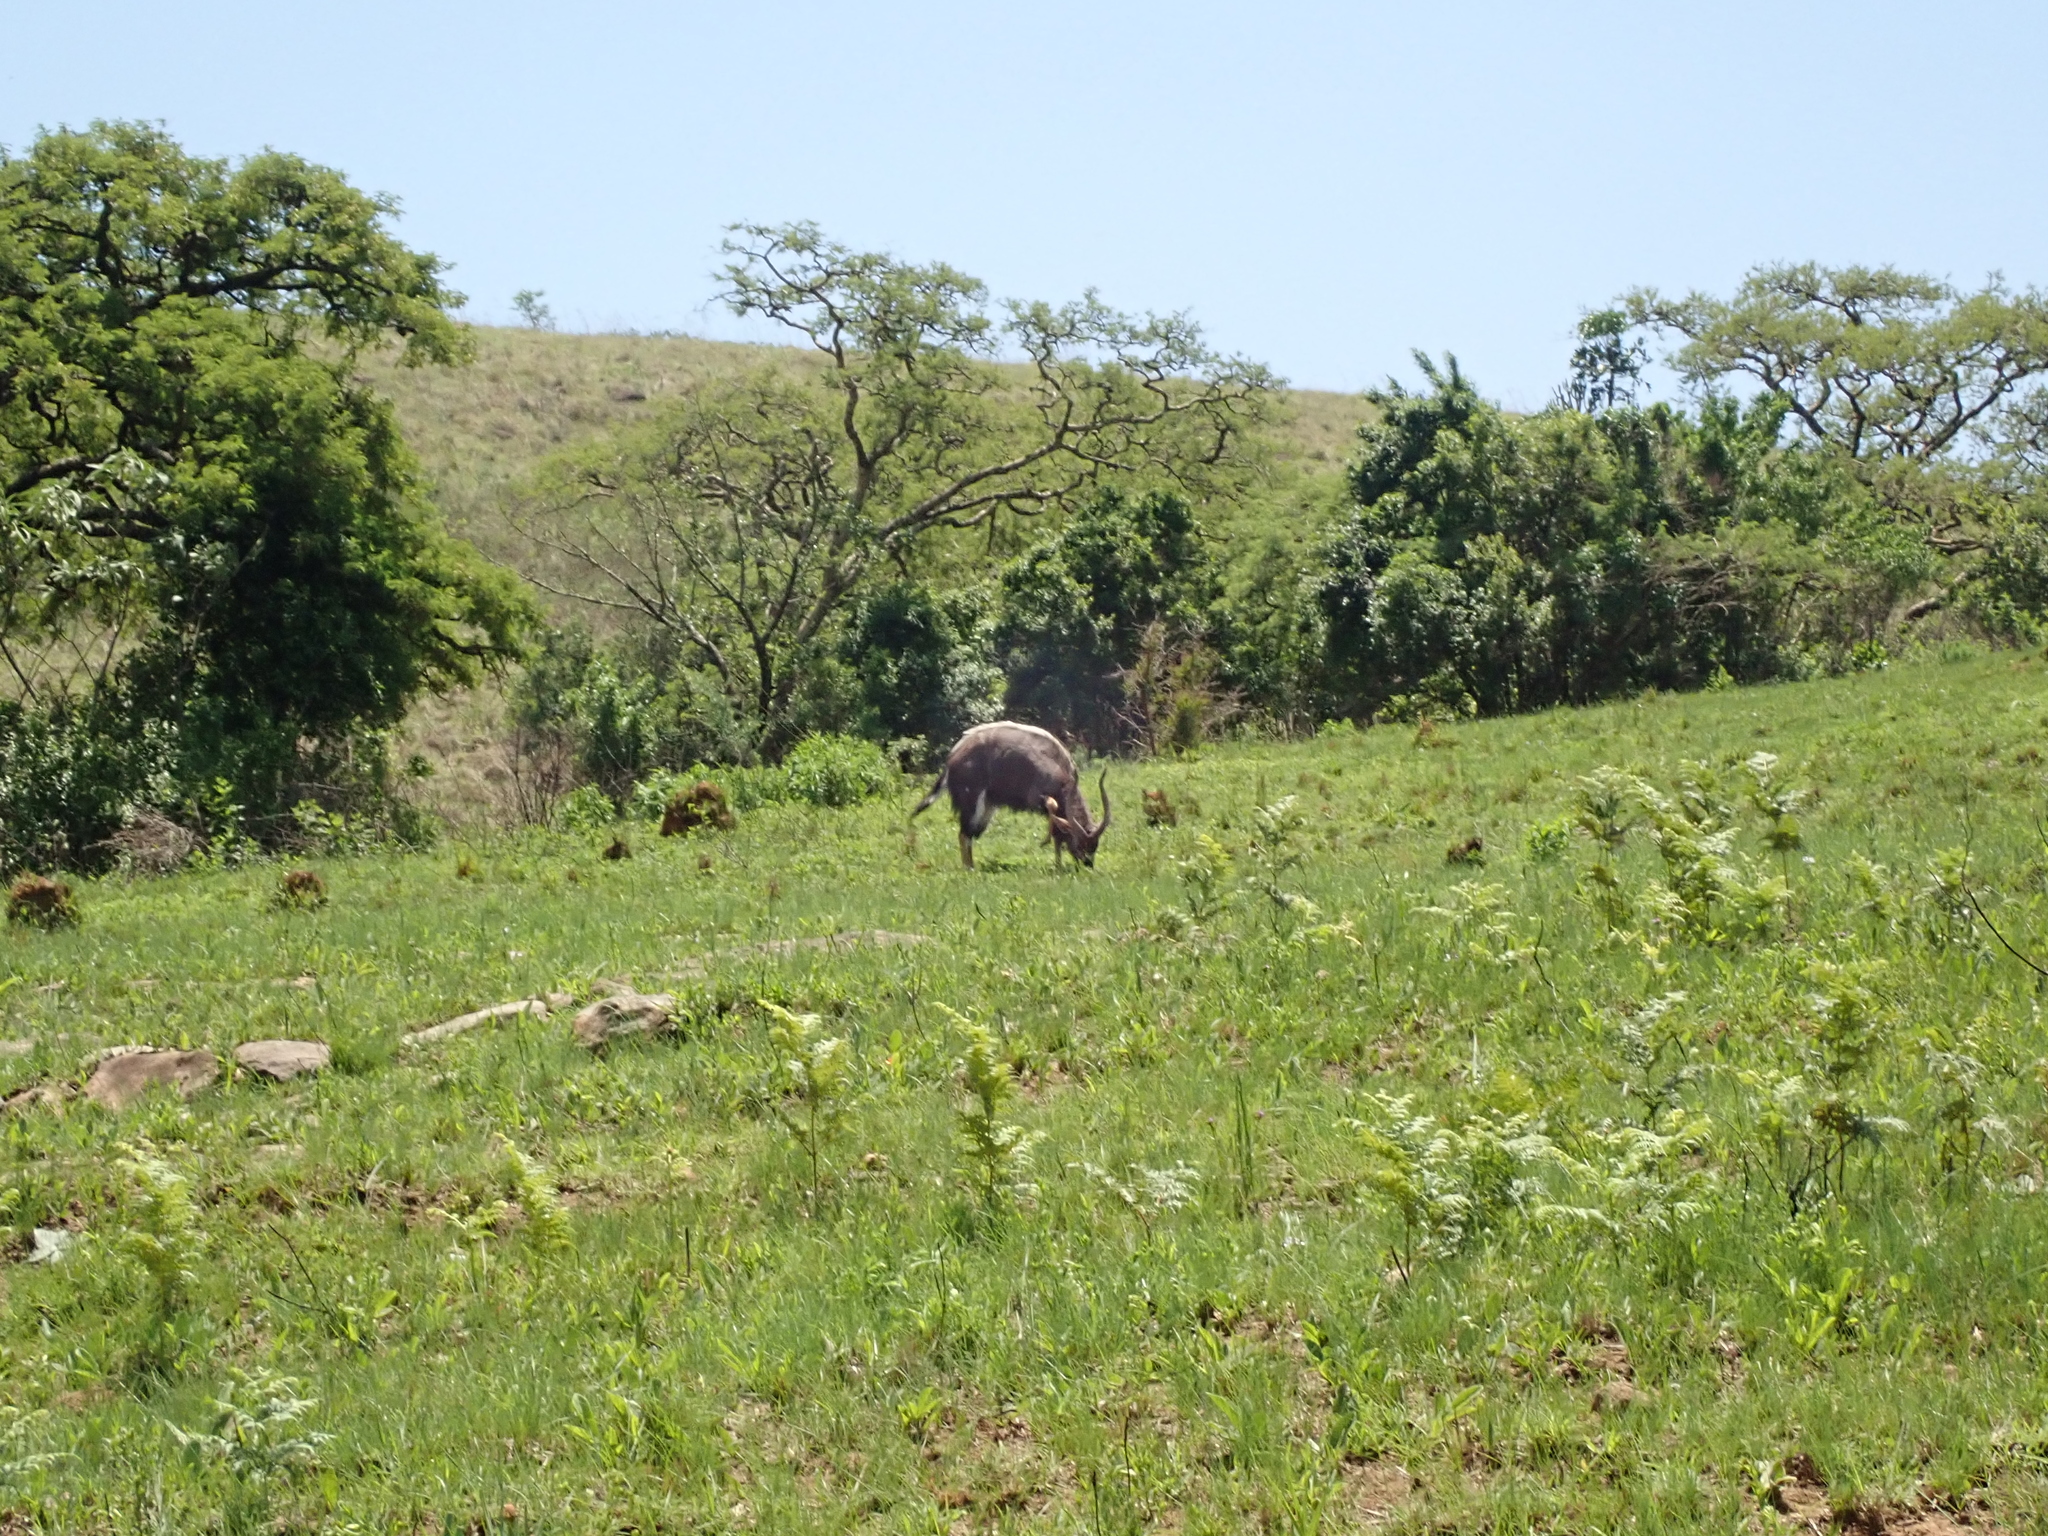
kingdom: Animalia
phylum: Chordata
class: Mammalia
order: Artiodactyla
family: Bovidae
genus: Tragelaphus
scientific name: Tragelaphus angasii
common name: Nyala
